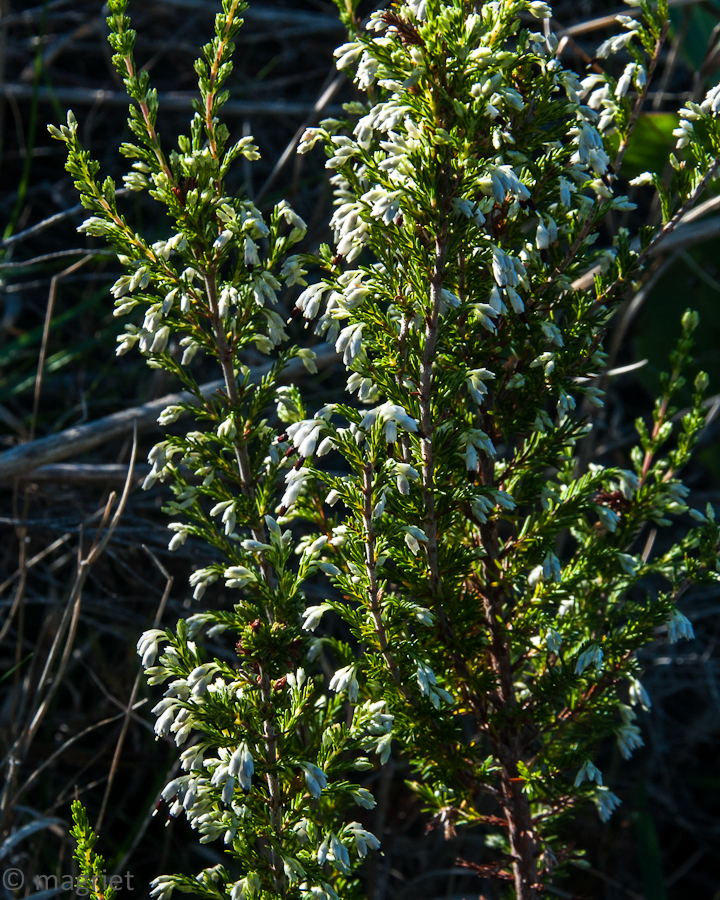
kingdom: Plantae
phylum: Tracheophyta
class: Magnoliopsida
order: Ericales
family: Ericaceae
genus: Erica
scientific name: Erica imbricata
